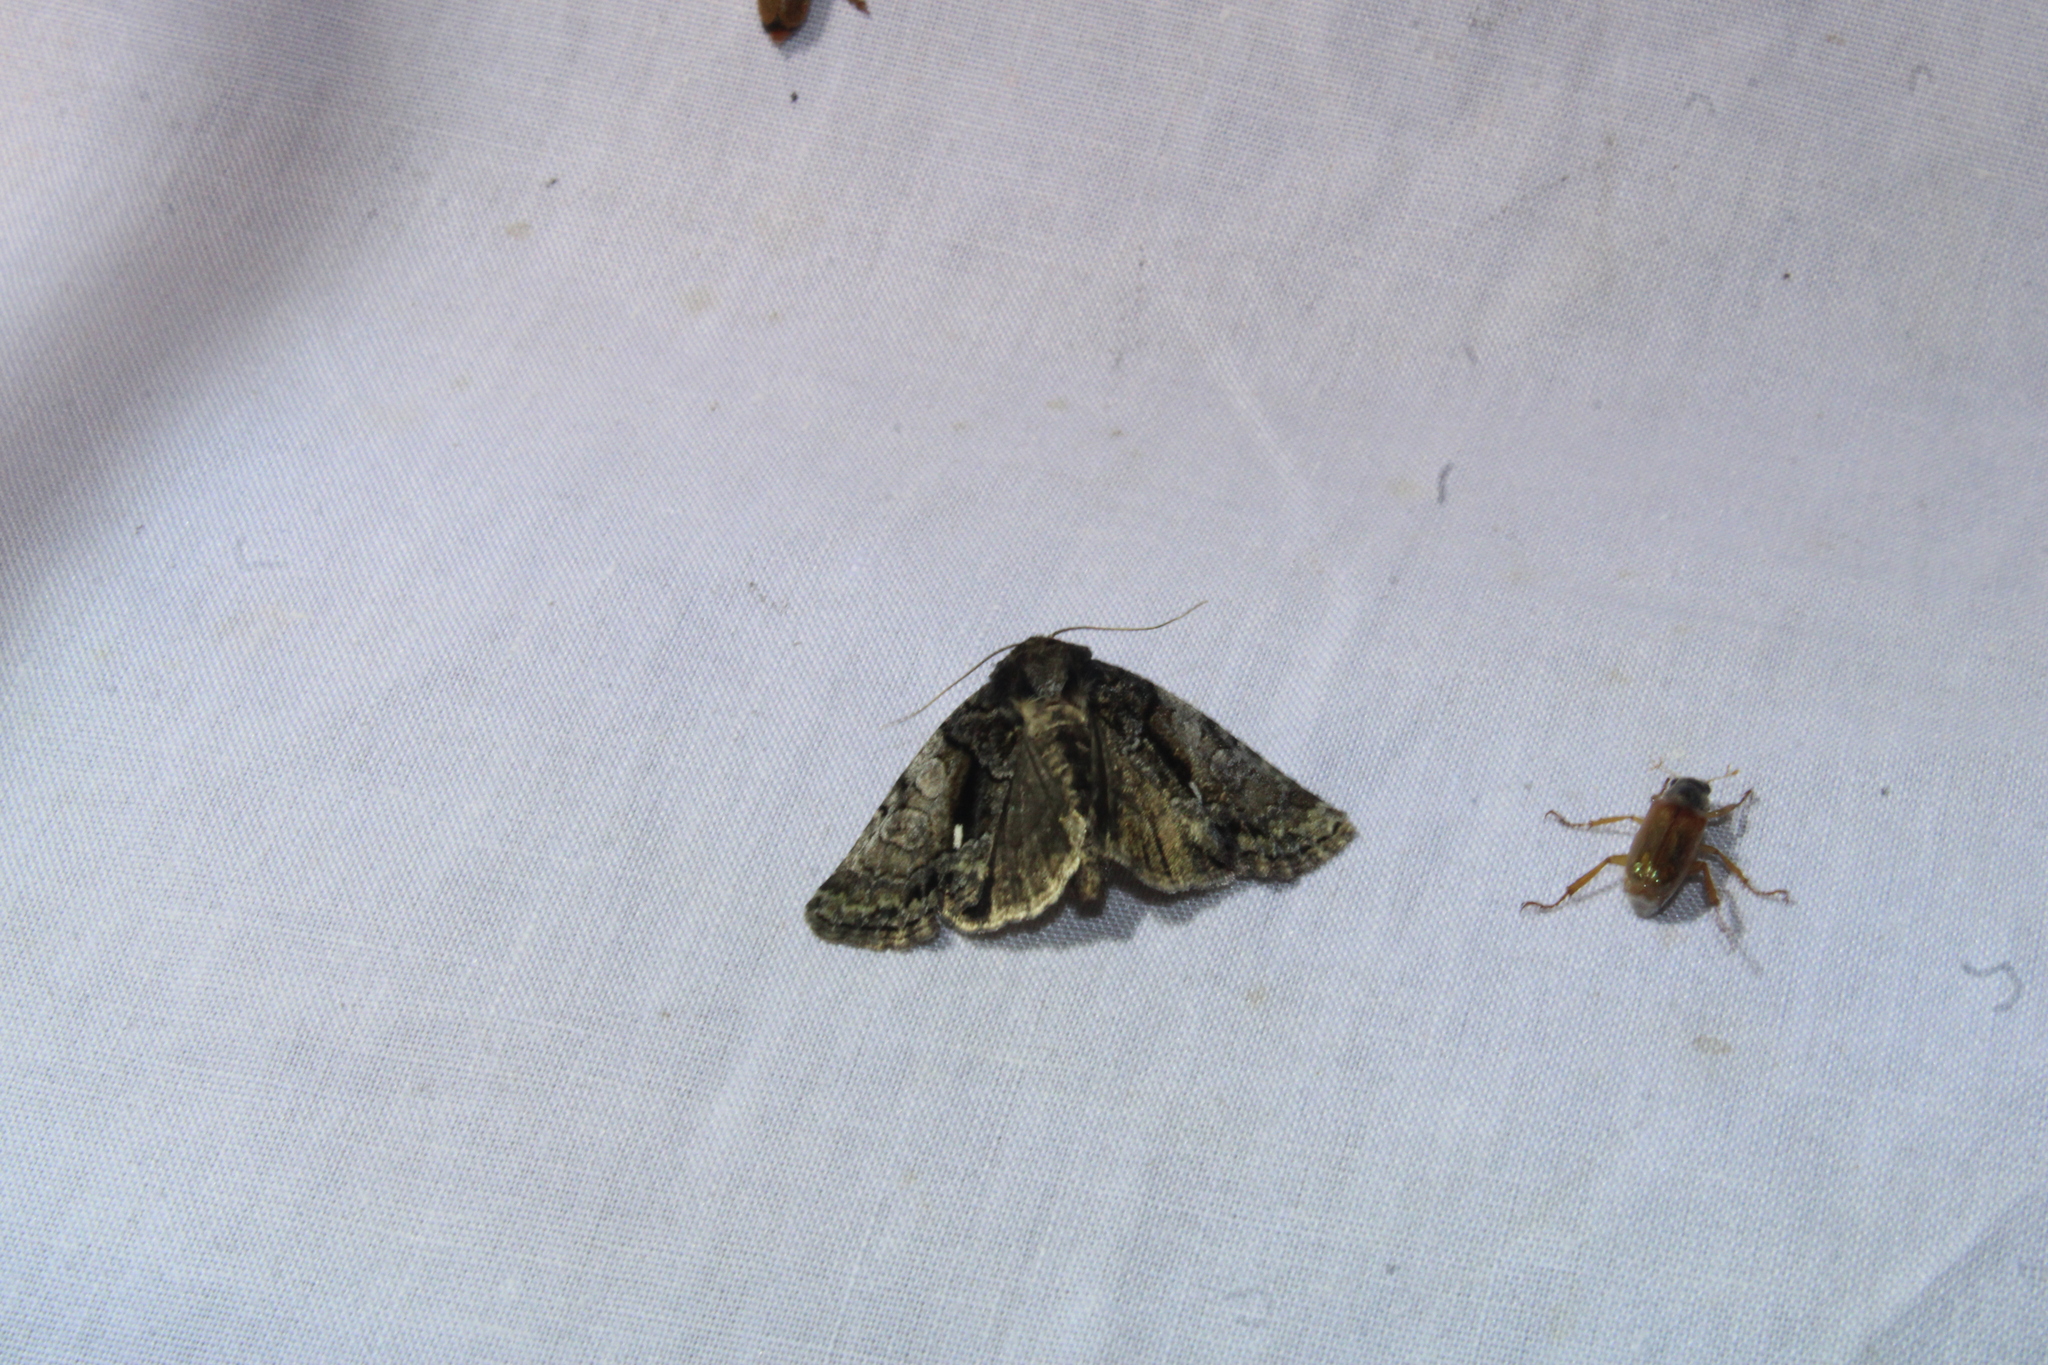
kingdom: Animalia
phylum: Arthropoda
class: Insecta
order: Lepidoptera
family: Noctuidae
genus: Chytonix
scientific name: Chytonix palliatricula
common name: Cloaked marvel
